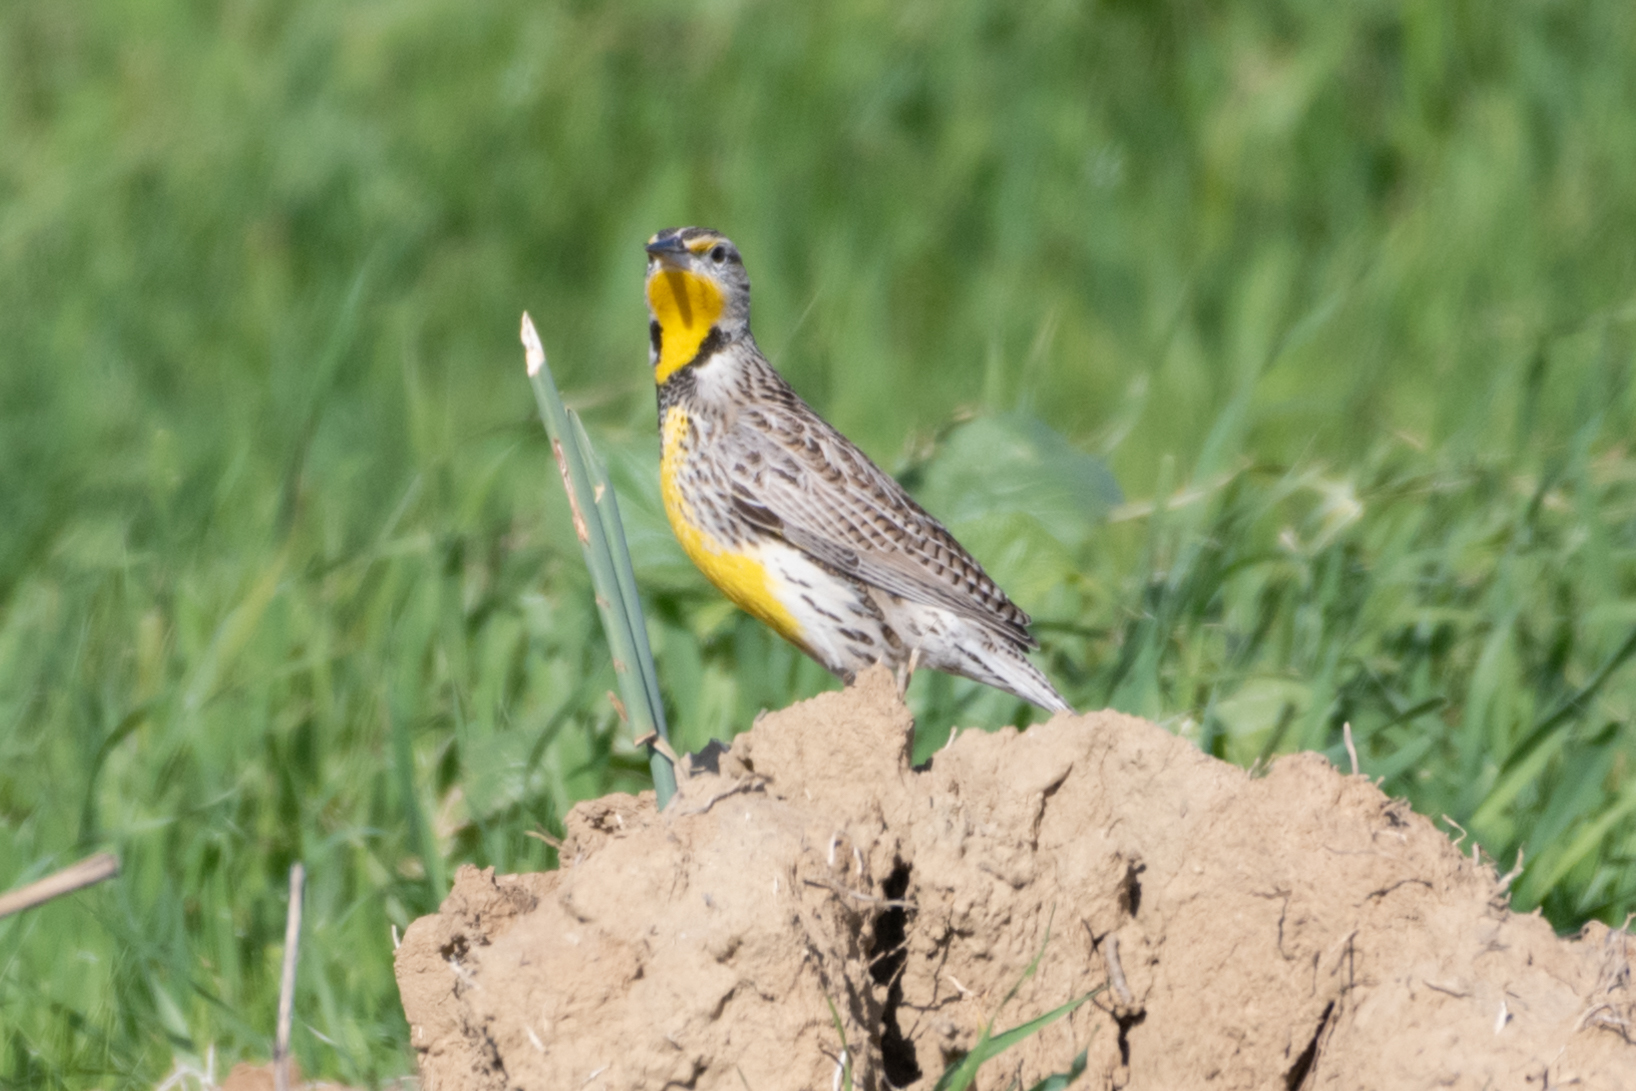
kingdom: Animalia
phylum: Chordata
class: Aves
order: Passeriformes
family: Icteridae
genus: Sturnella
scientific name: Sturnella neglecta
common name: Western meadowlark
